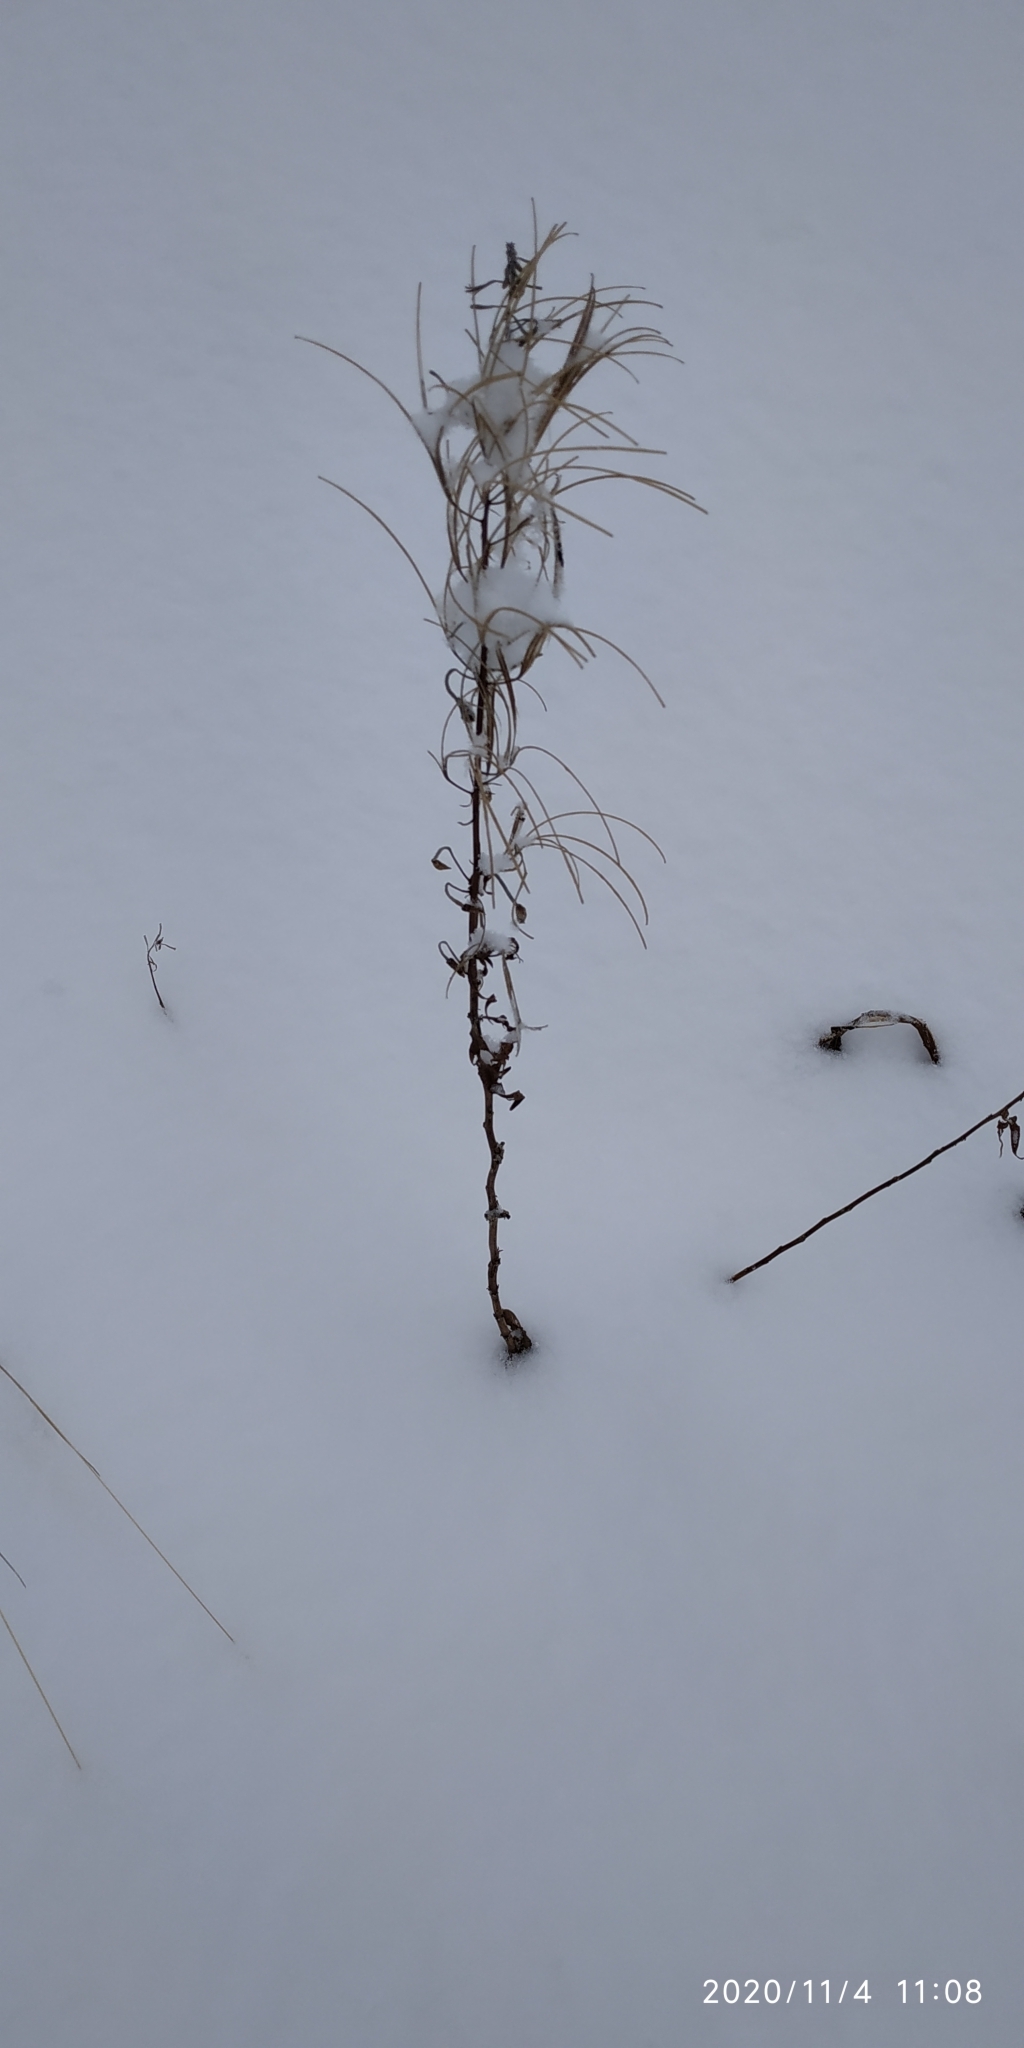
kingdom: Plantae
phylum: Tracheophyta
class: Magnoliopsida
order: Myrtales
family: Onagraceae
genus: Chamaenerion
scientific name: Chamaenerion angustifolium
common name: Fireweed
